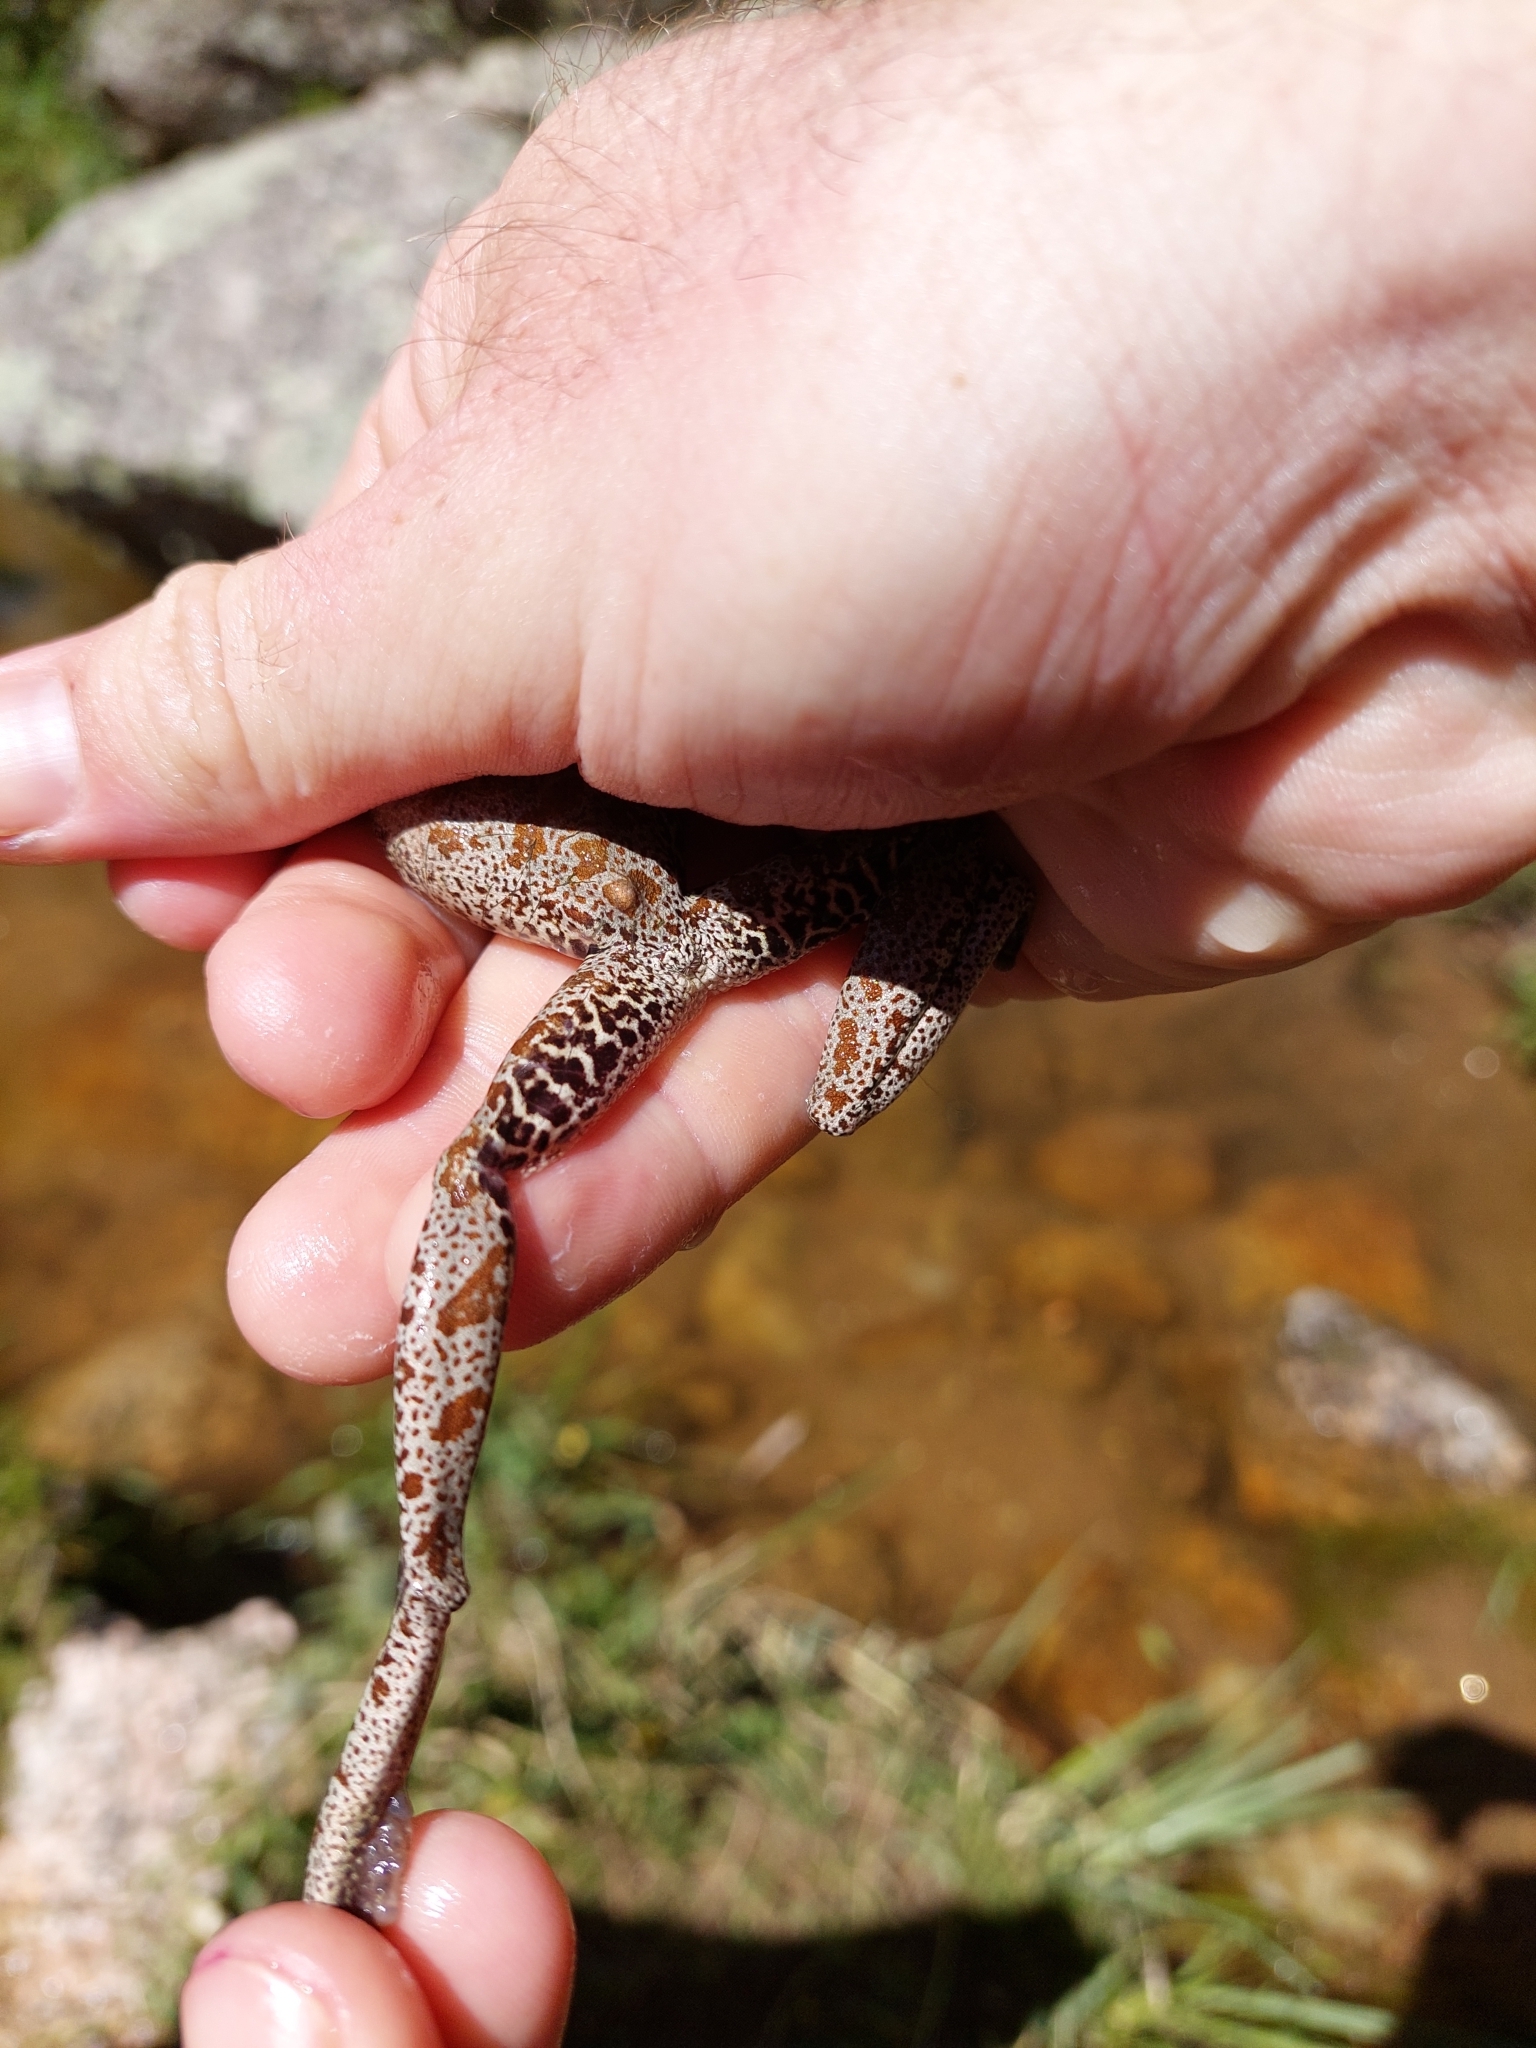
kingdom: Animalia
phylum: Chordata
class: Amphibia
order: Anura
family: Hylidae
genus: Boana
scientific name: Boana cordobae
